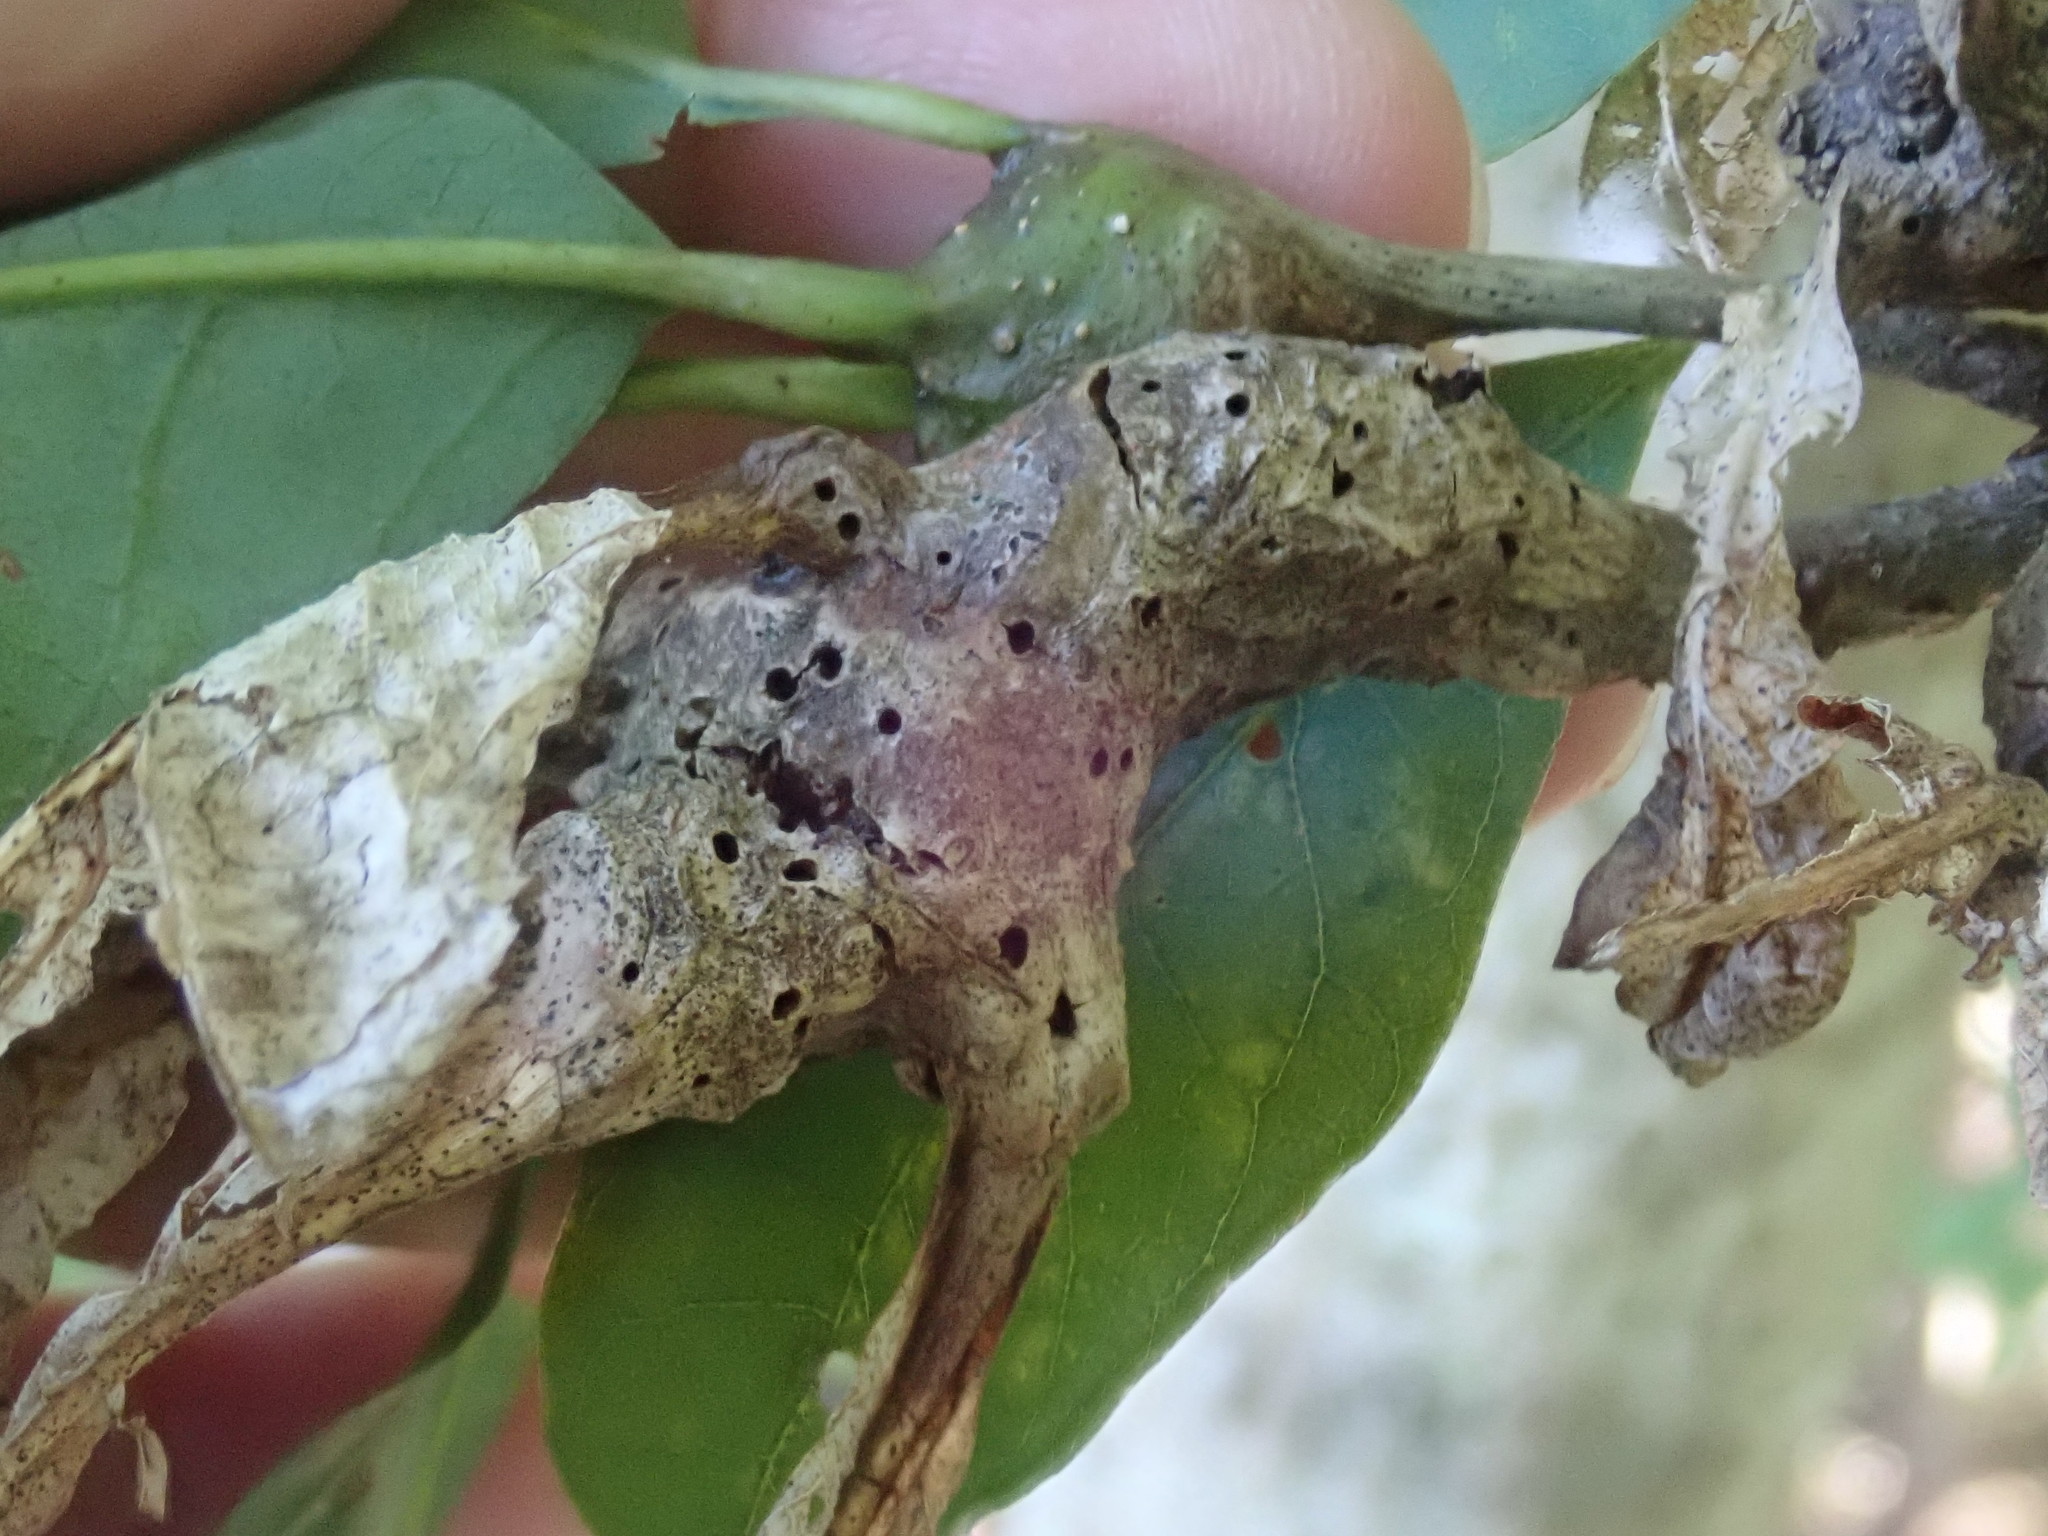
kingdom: Animalia
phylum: Arthropoda
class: Insecta
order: Hymenoptera
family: Cynipidae
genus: Neuroterus
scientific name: Neuroterus quercusbaccarum
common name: Common spangle gall
